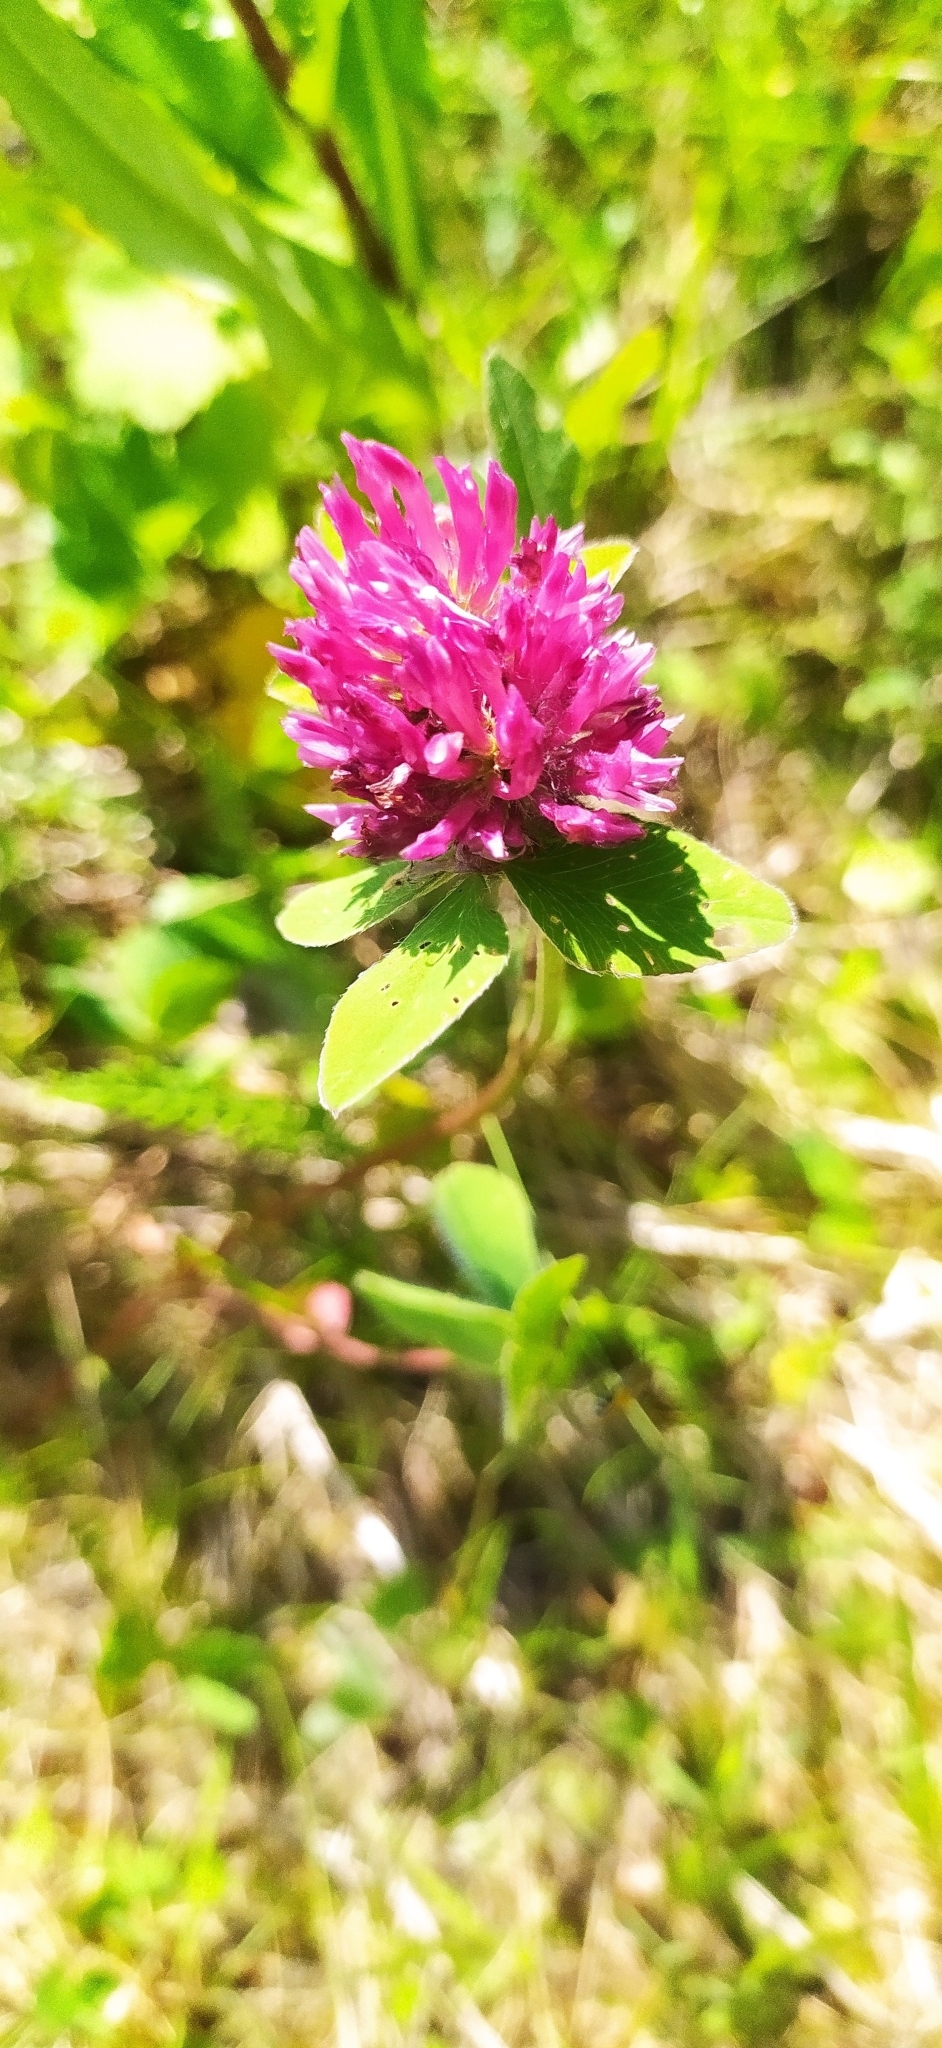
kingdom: Plantae
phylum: Tracheophyta
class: Magnoliopsida
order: Fabales
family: Fabaceae
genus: Trifolium
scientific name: Trifolium pratense
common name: Red clover
